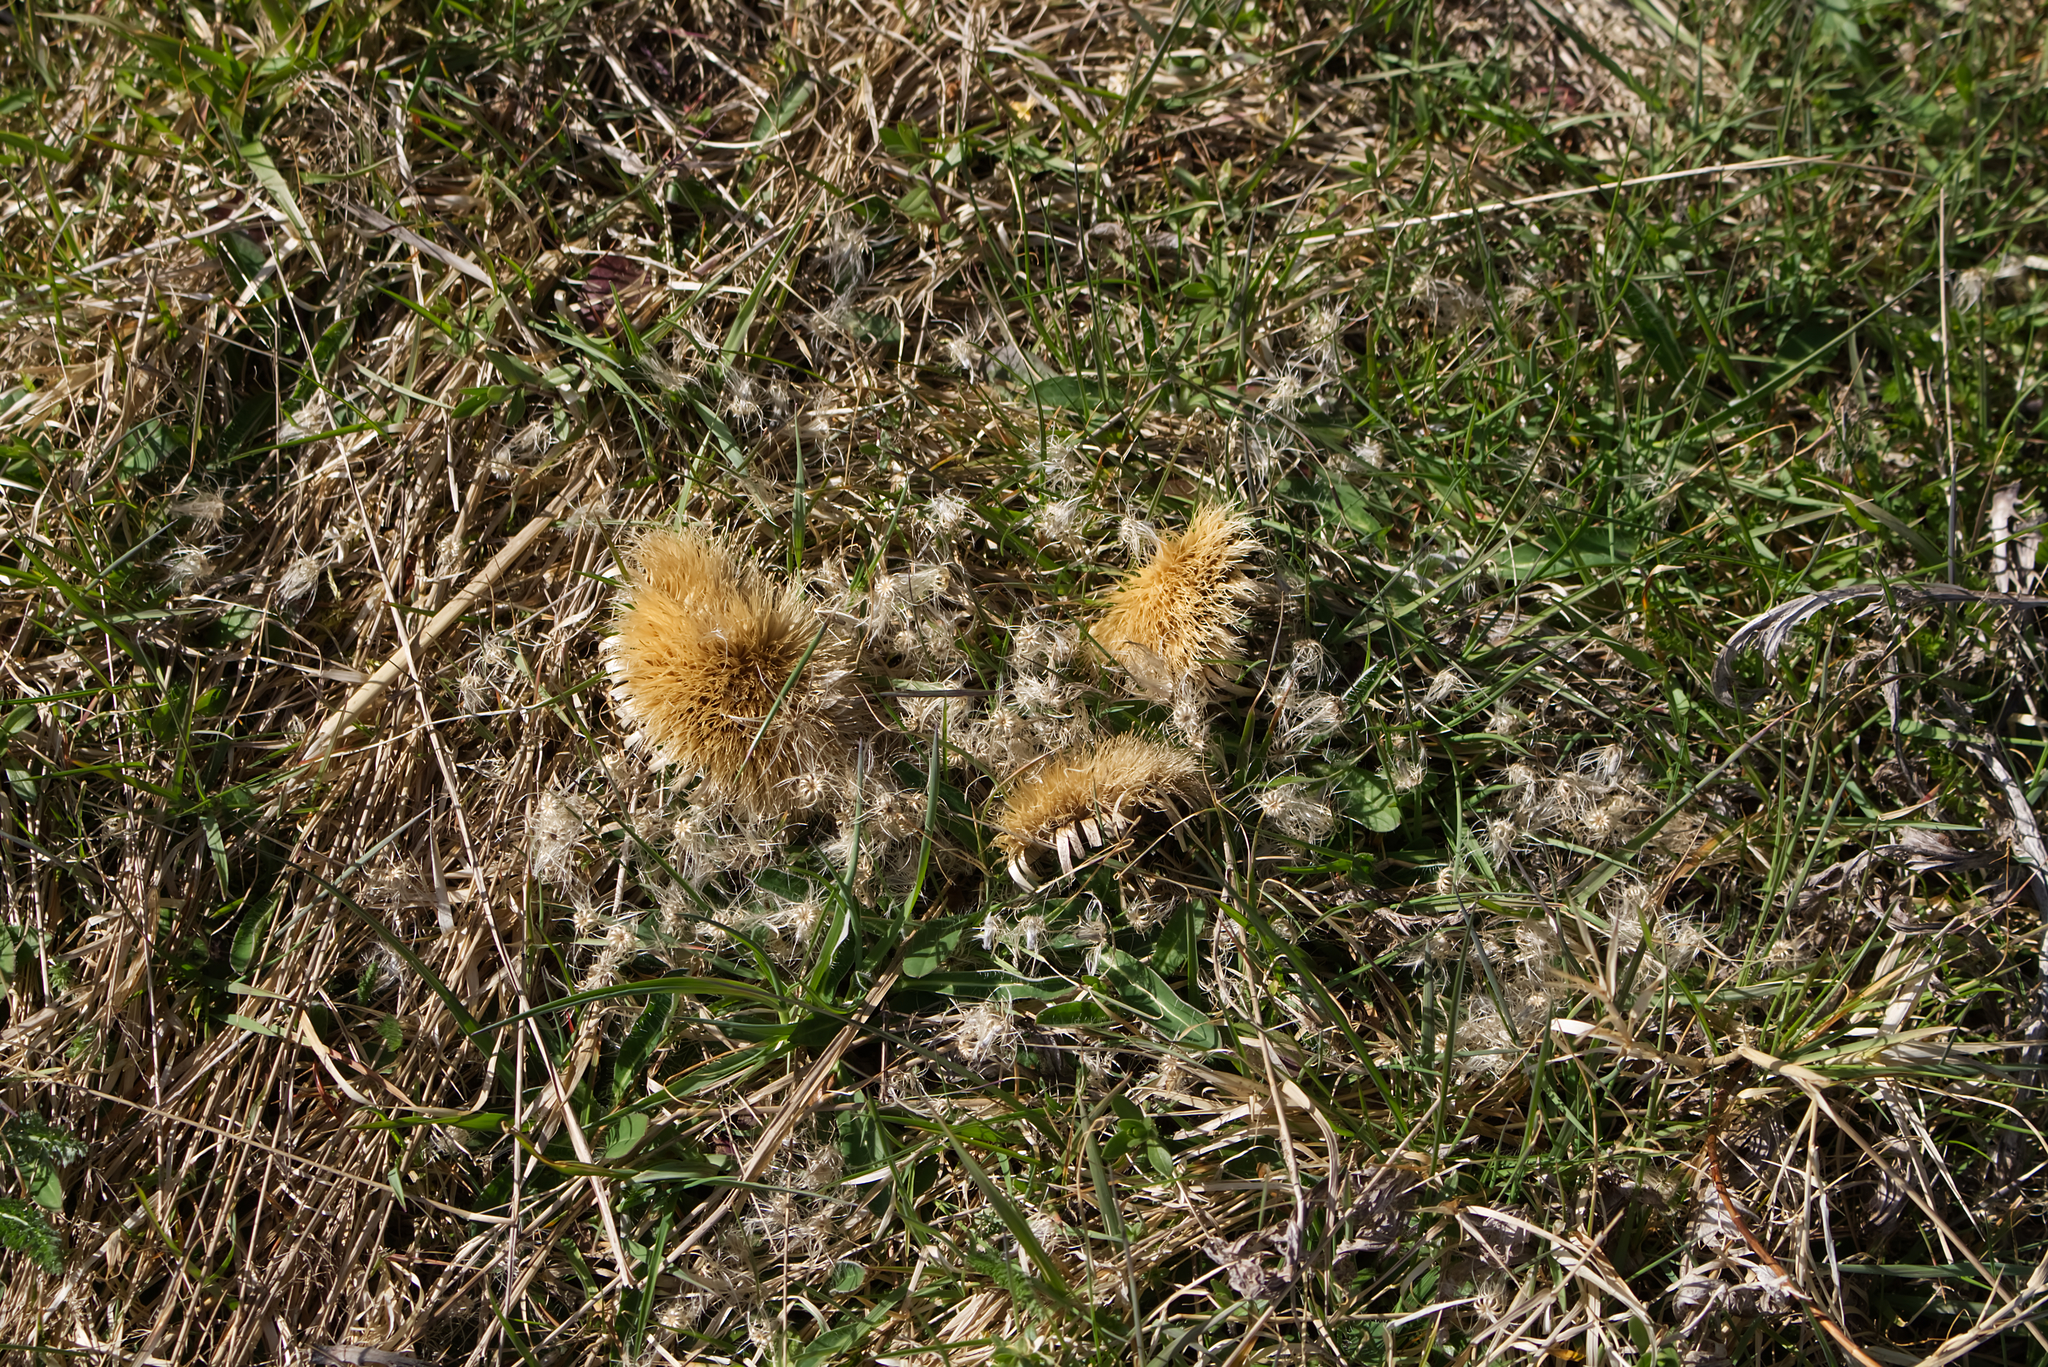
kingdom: Plantae
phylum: Tracheophyta
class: Magnoliopsida
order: Asterales
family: Asteraceae
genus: Carlina
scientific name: Carlina acaulis
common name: Stemless carline thistle
